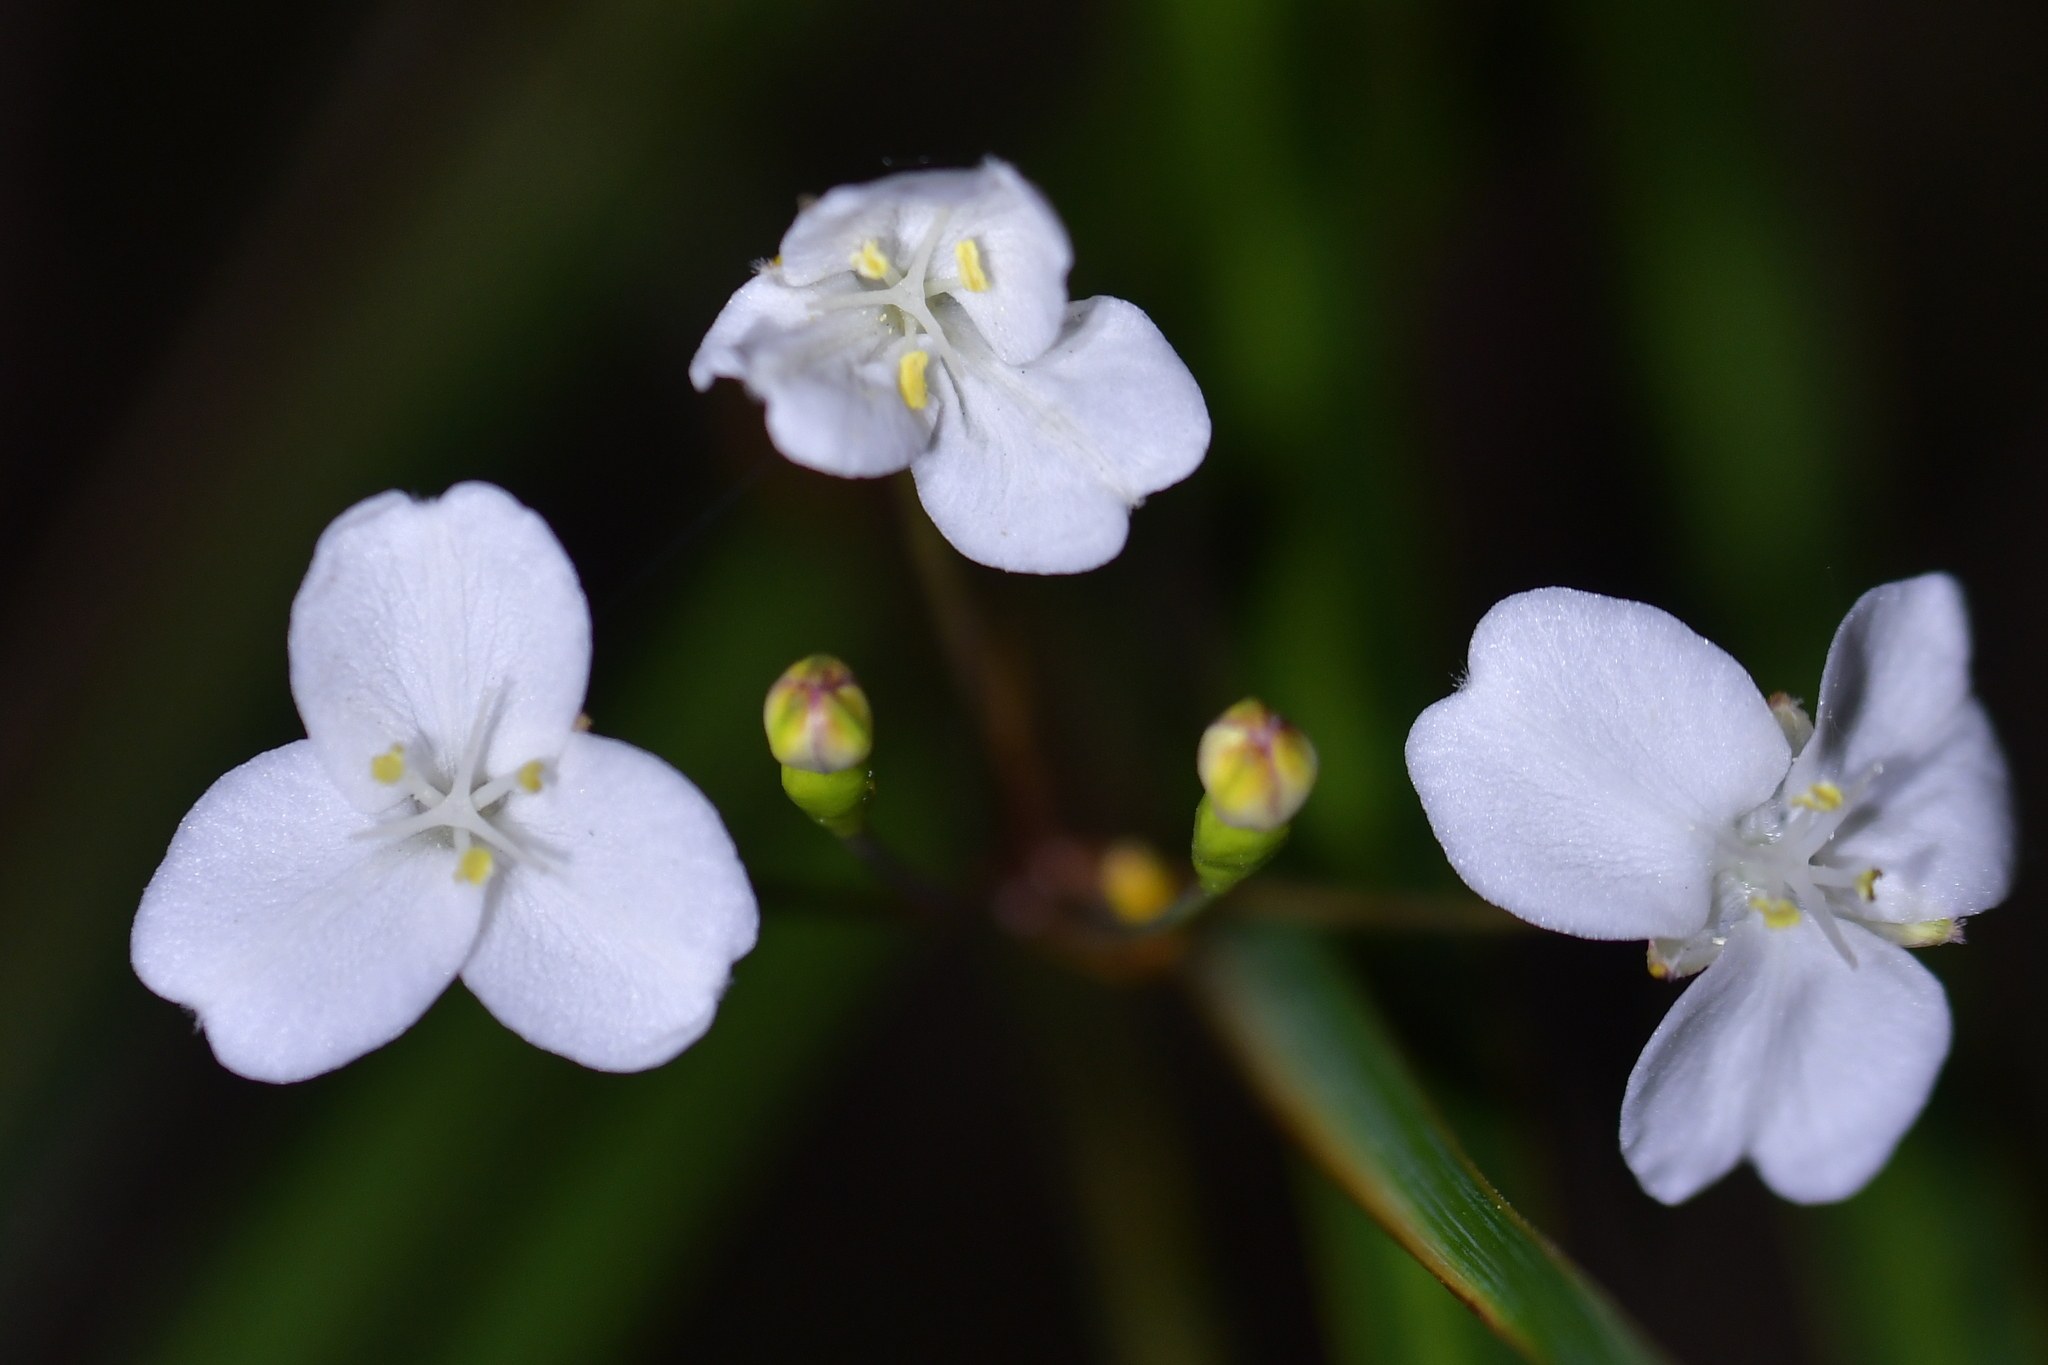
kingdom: Plantae
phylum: Tracheophyta
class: Liliopsida
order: Asparagales
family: Iridaceae
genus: Libertia
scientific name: Libertia ixioides
